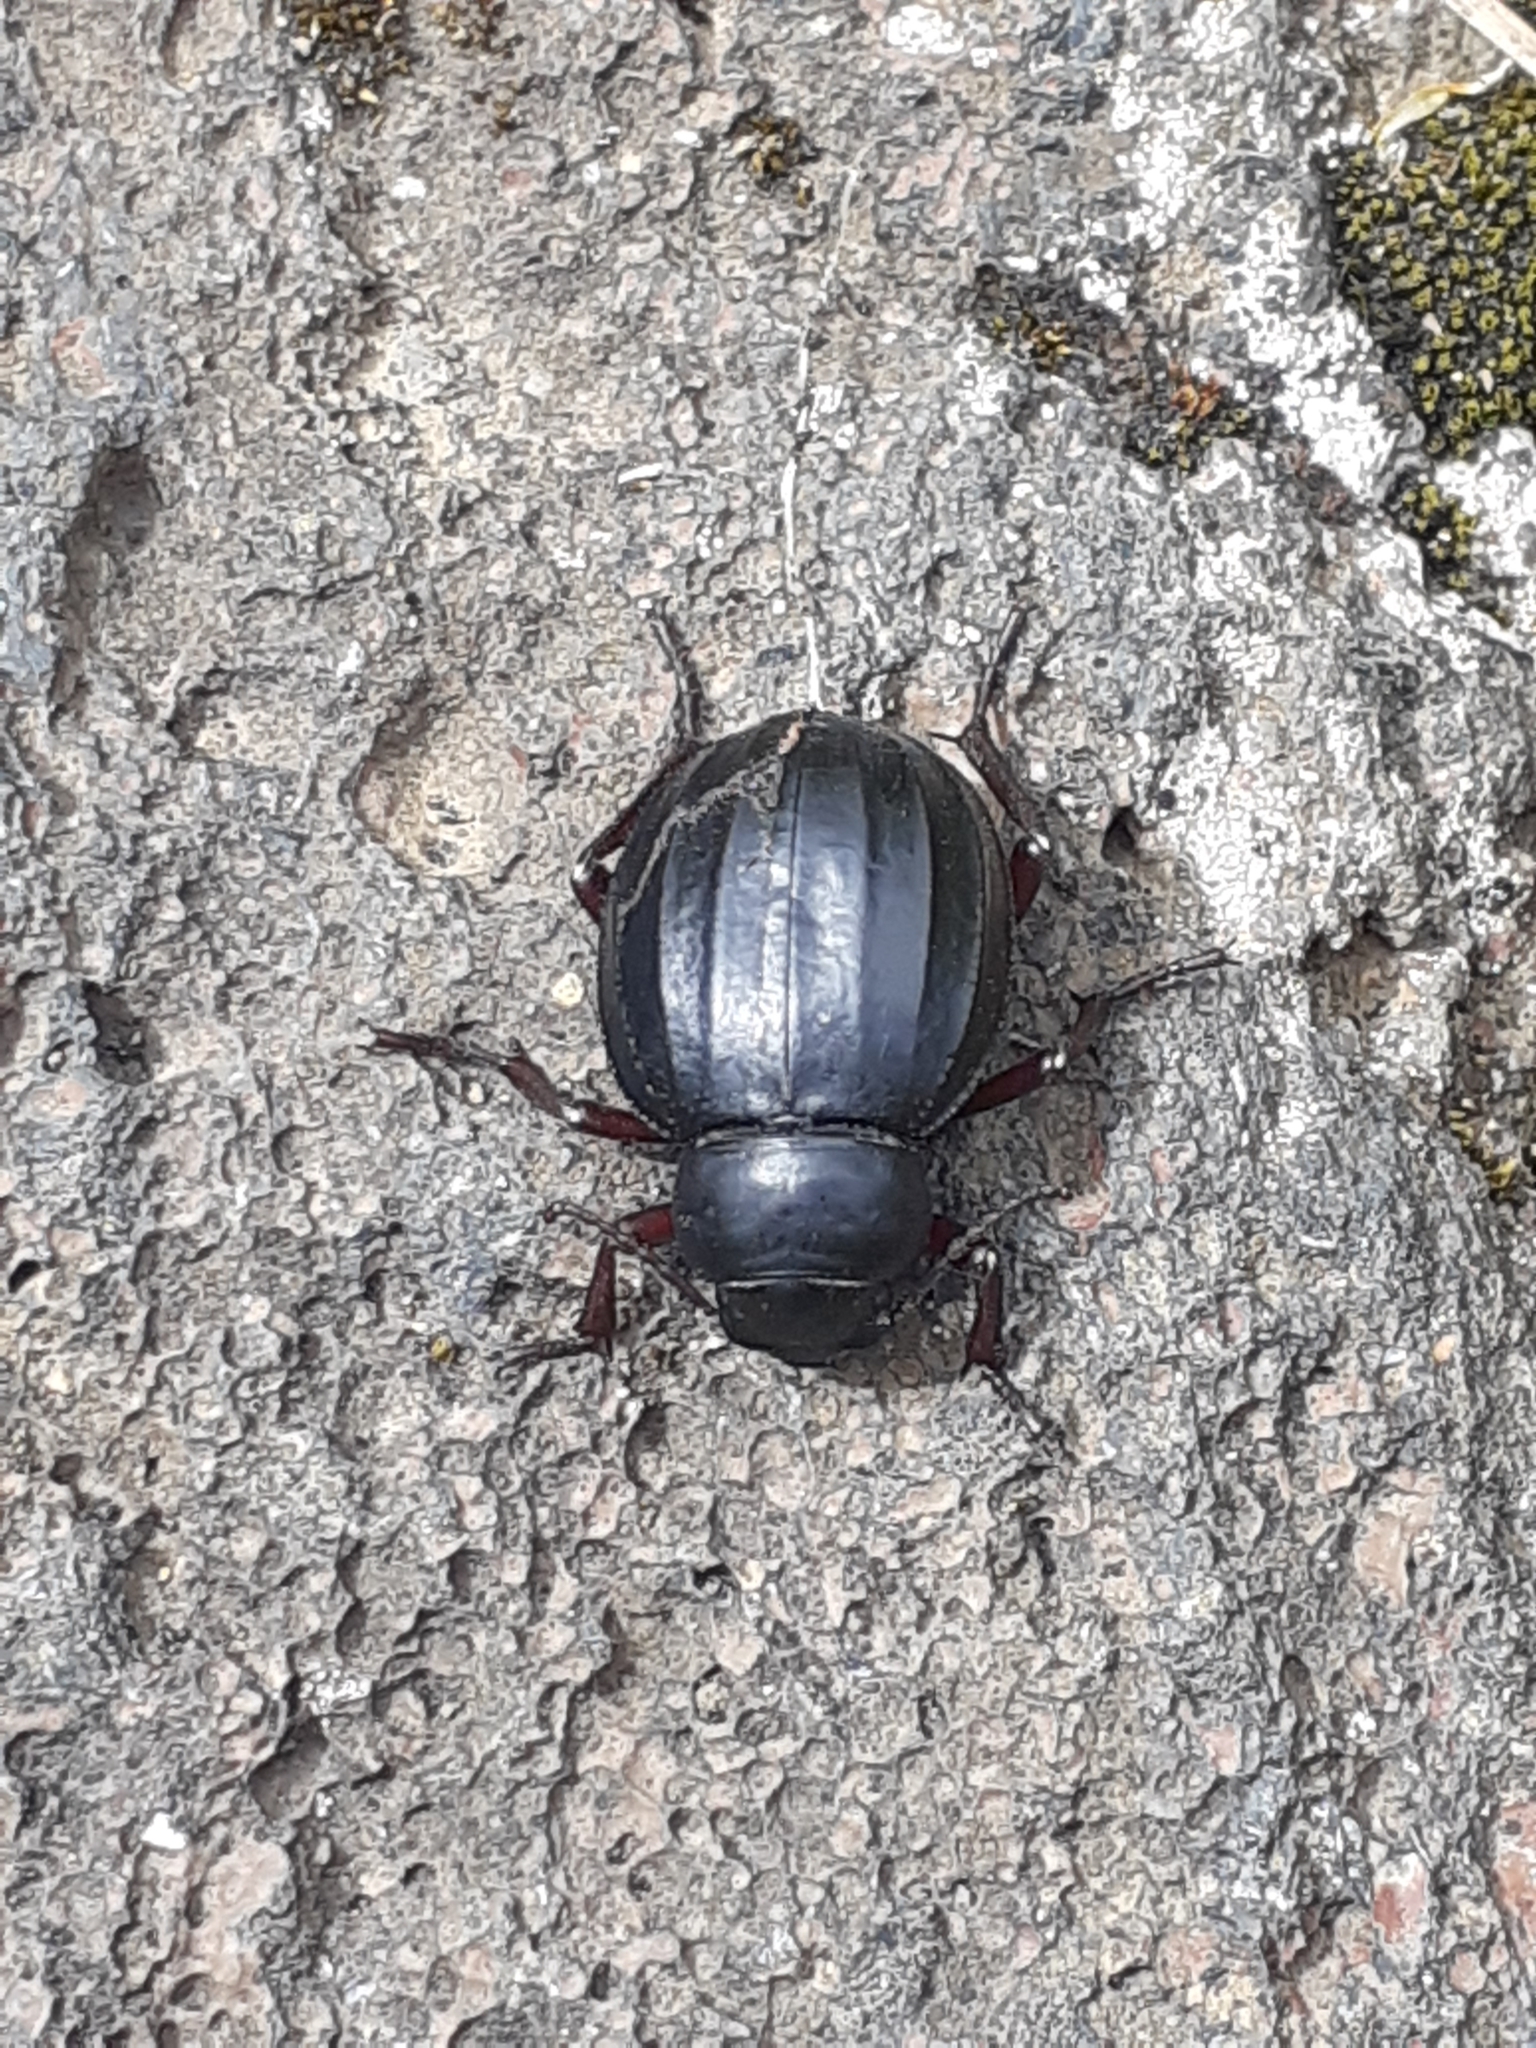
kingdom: Animalia
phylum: Arthropoda
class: Insecta
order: Coleoptera
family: Tenebrionidae
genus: Pimelia
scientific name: Pimelia laevigata
